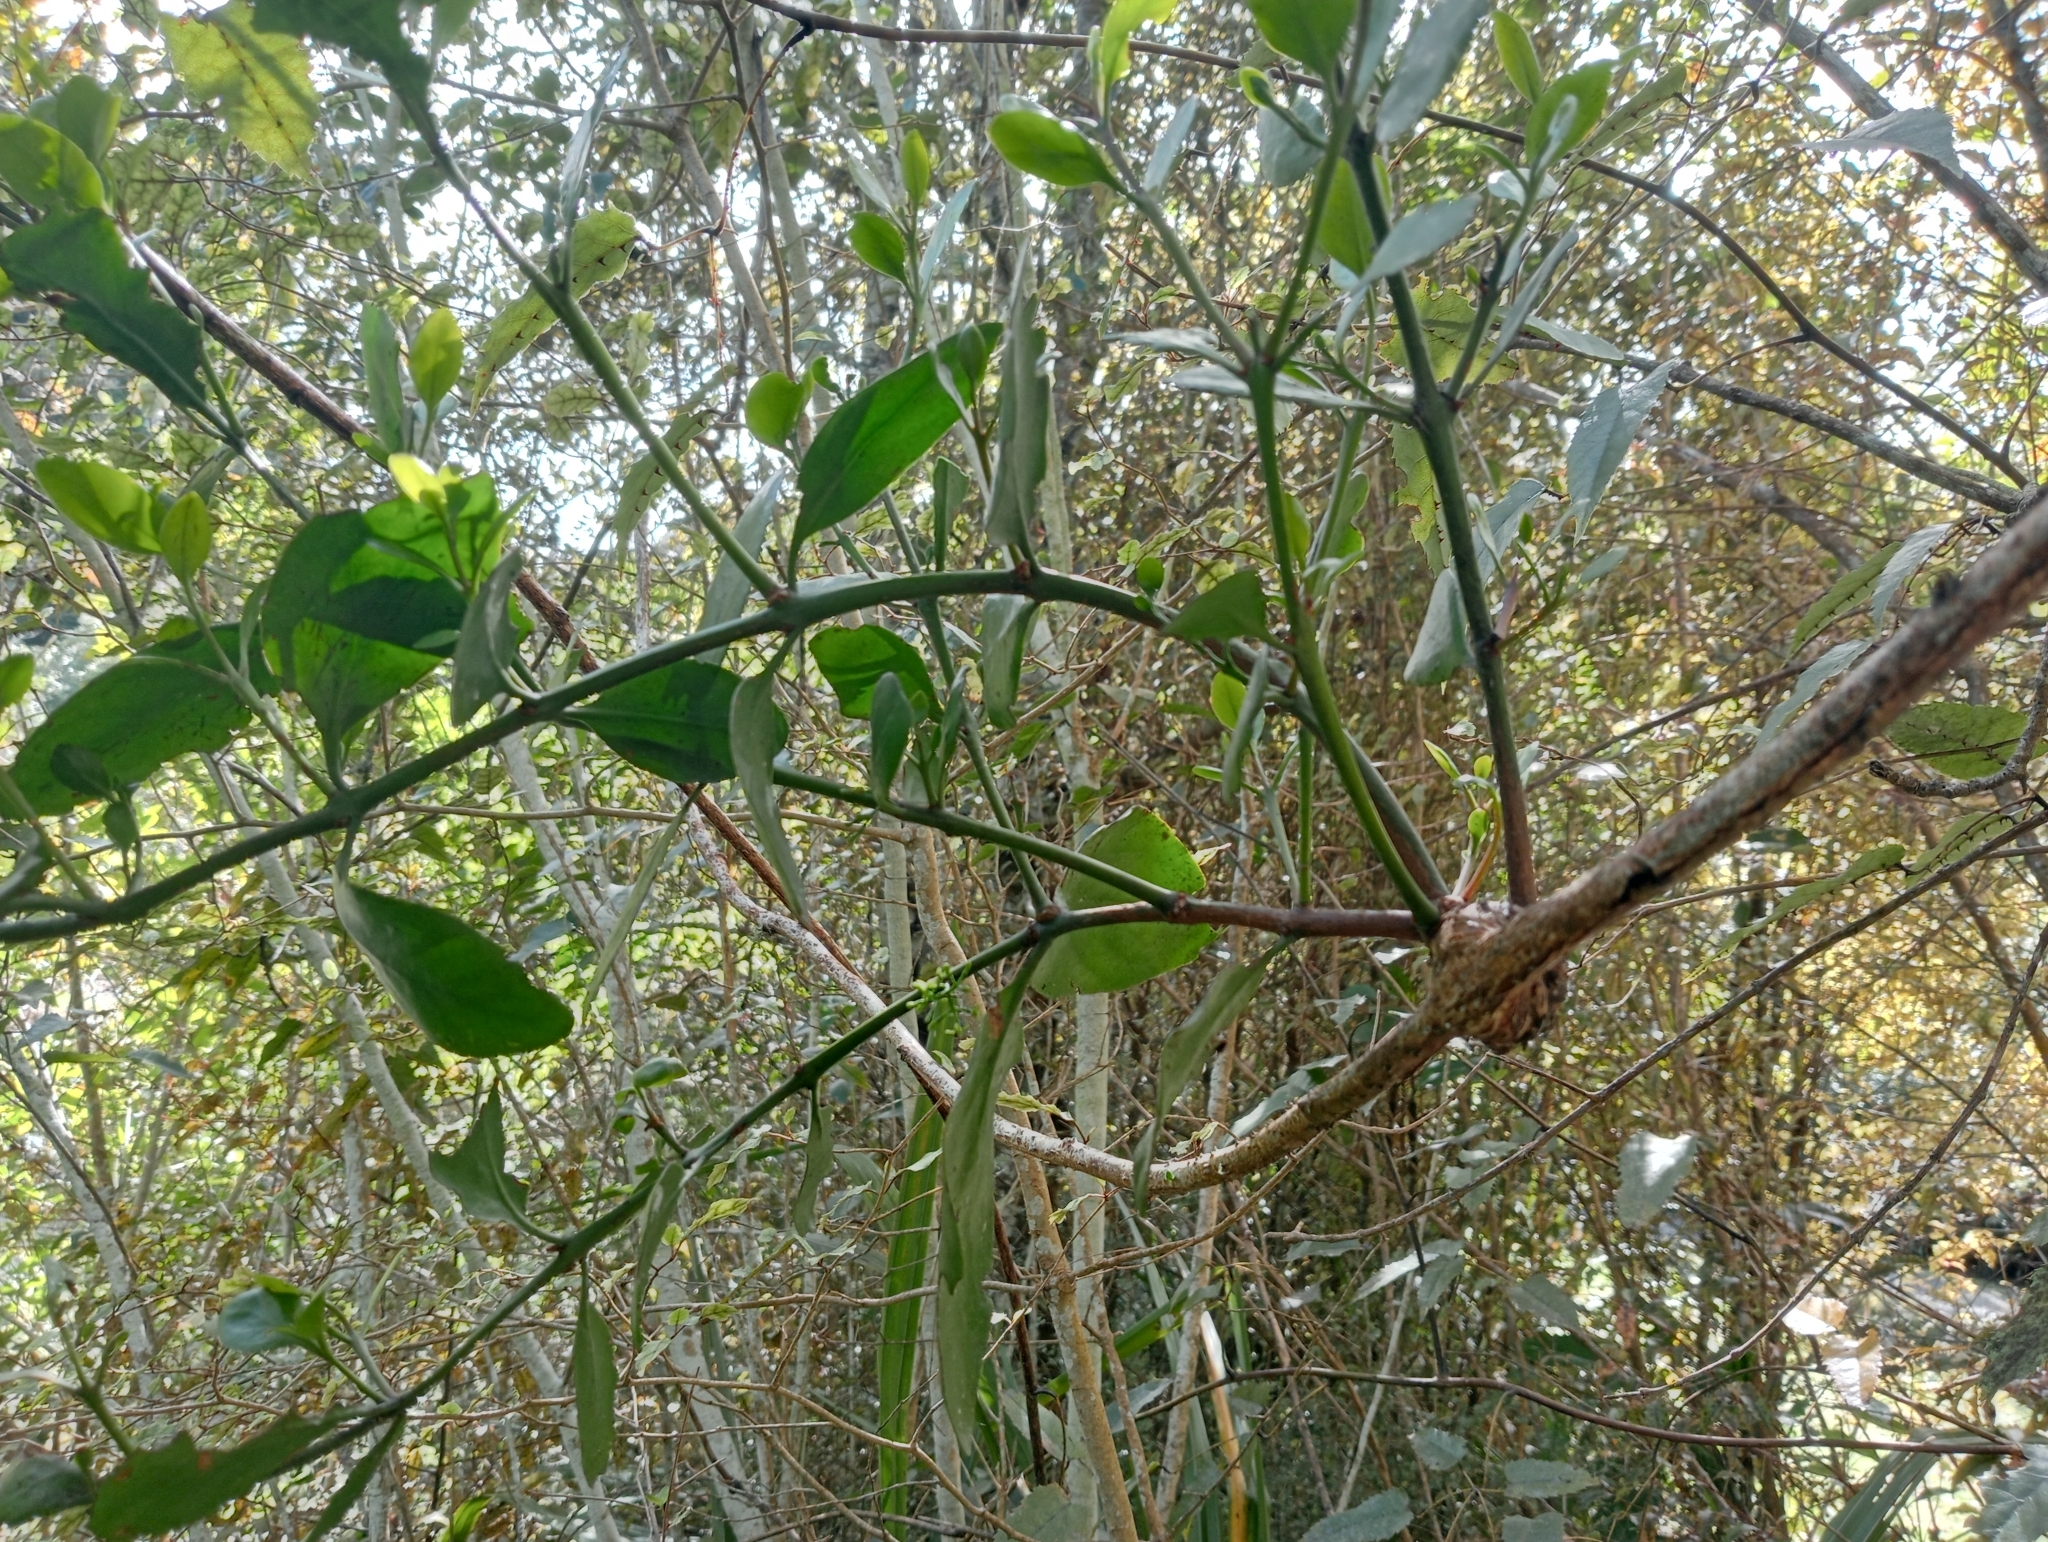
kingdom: Plantae
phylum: Tracheophyta
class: Magnoliopsida
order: Santalales
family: Loranthaceae
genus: Ileostylus
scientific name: Ileostylus micranthus
